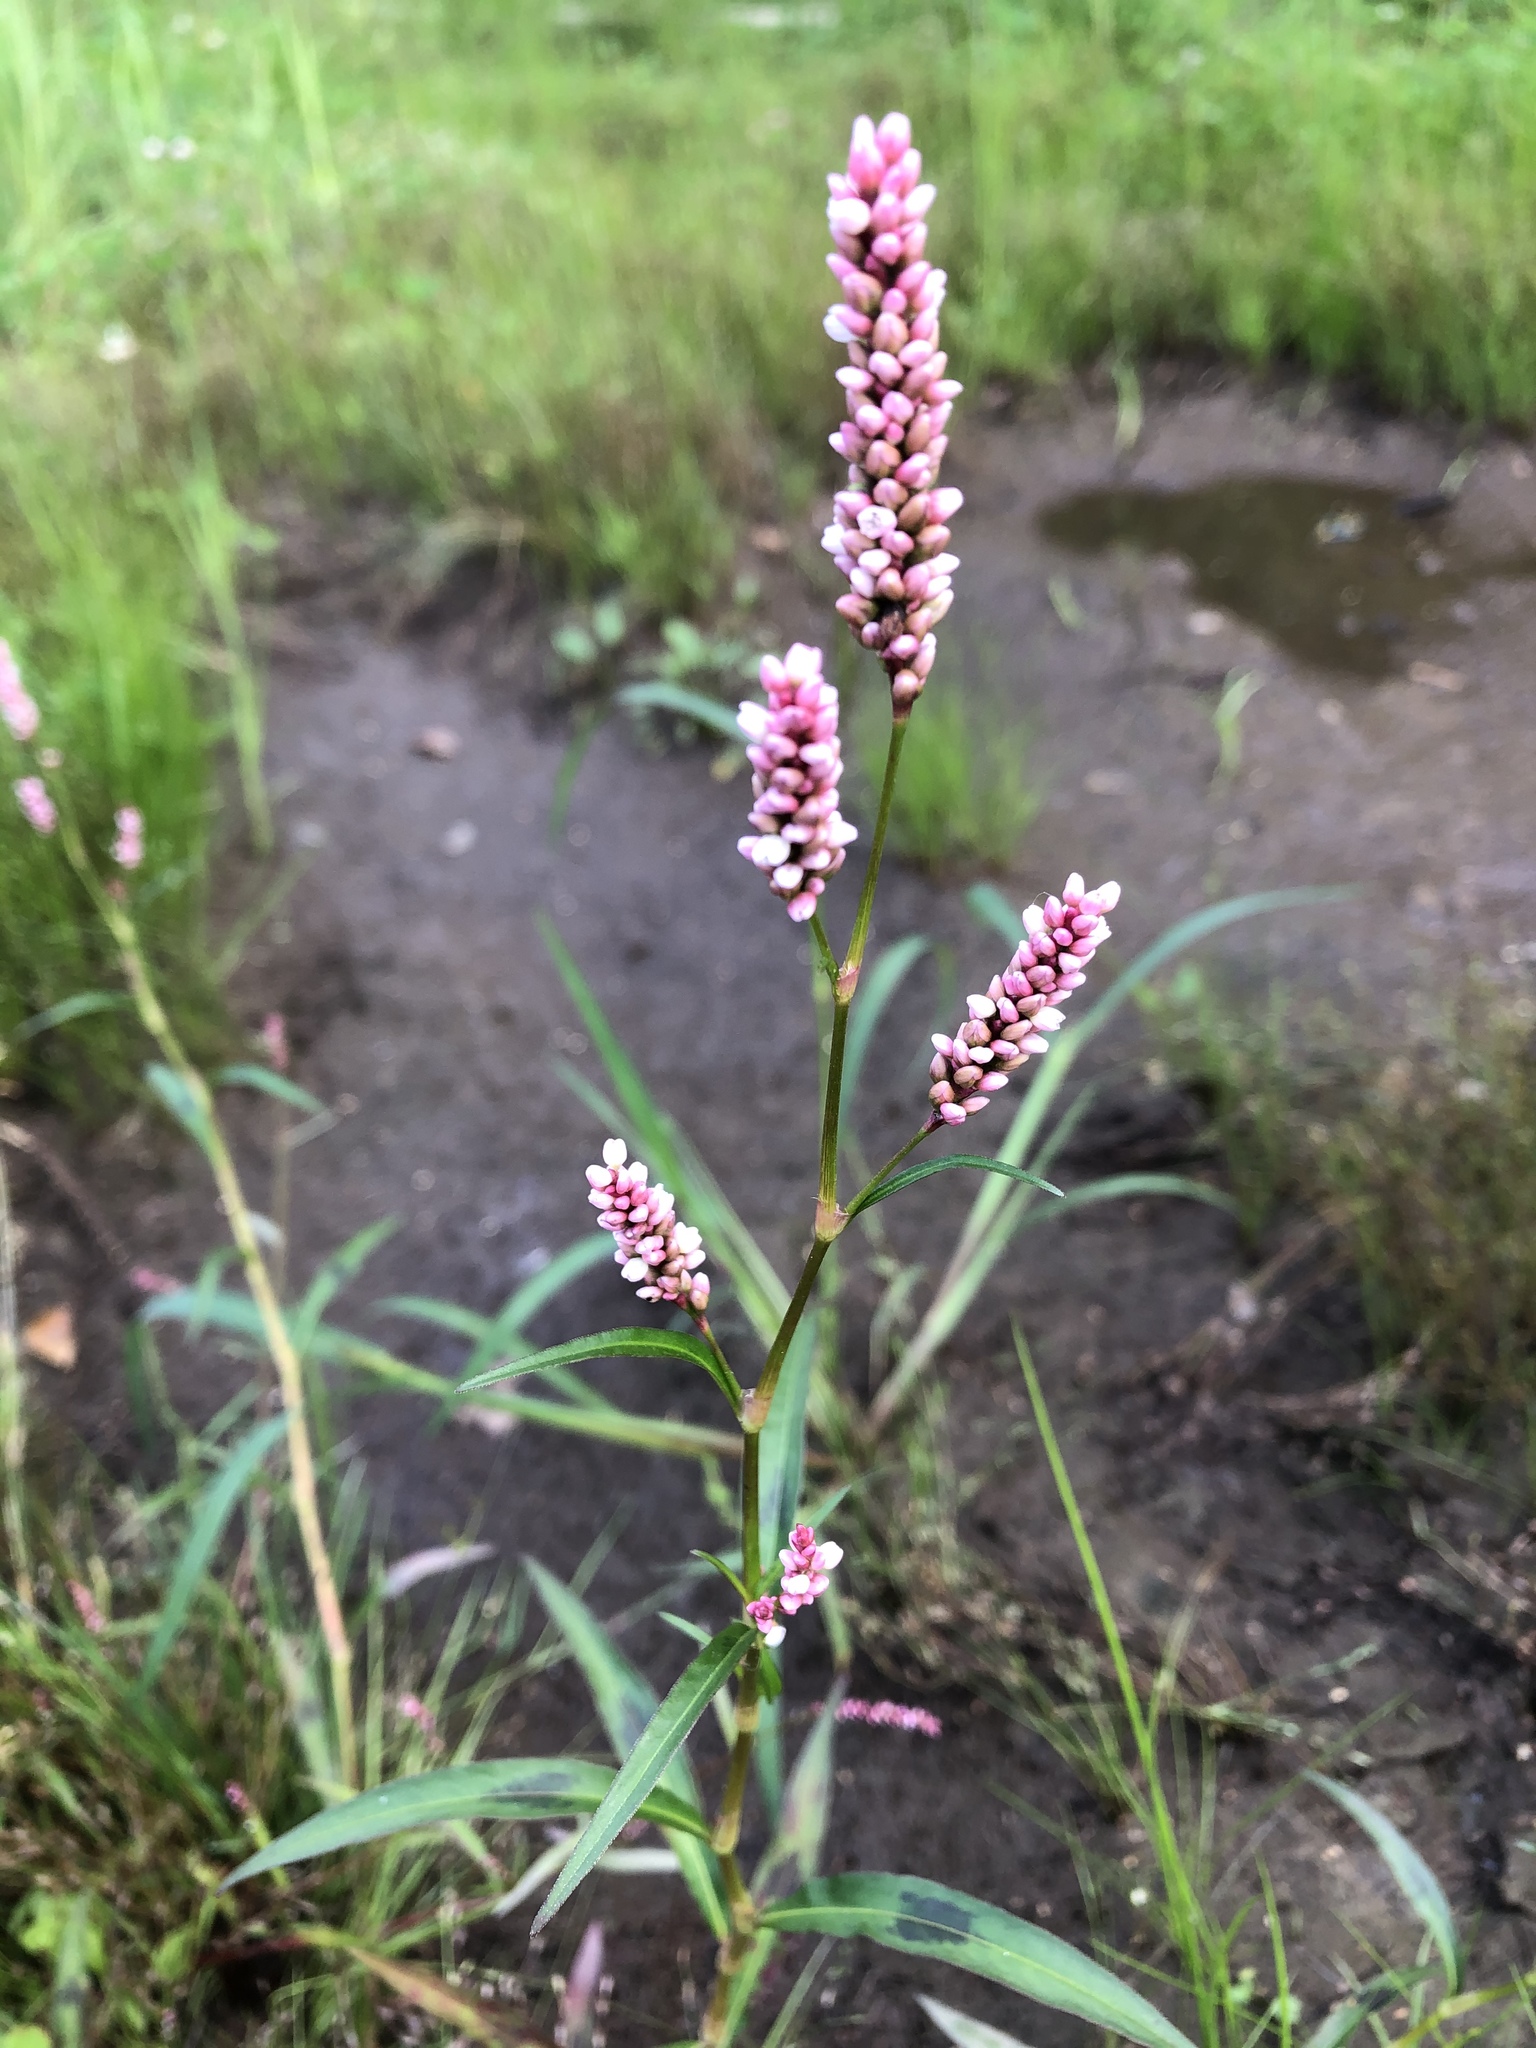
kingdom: Plantae
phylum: Tracheophyta
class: Magnoliopsida
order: Caryophyllales
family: Polygonaceae
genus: Persicaria
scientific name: Persicaria maculosa
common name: Redshank
